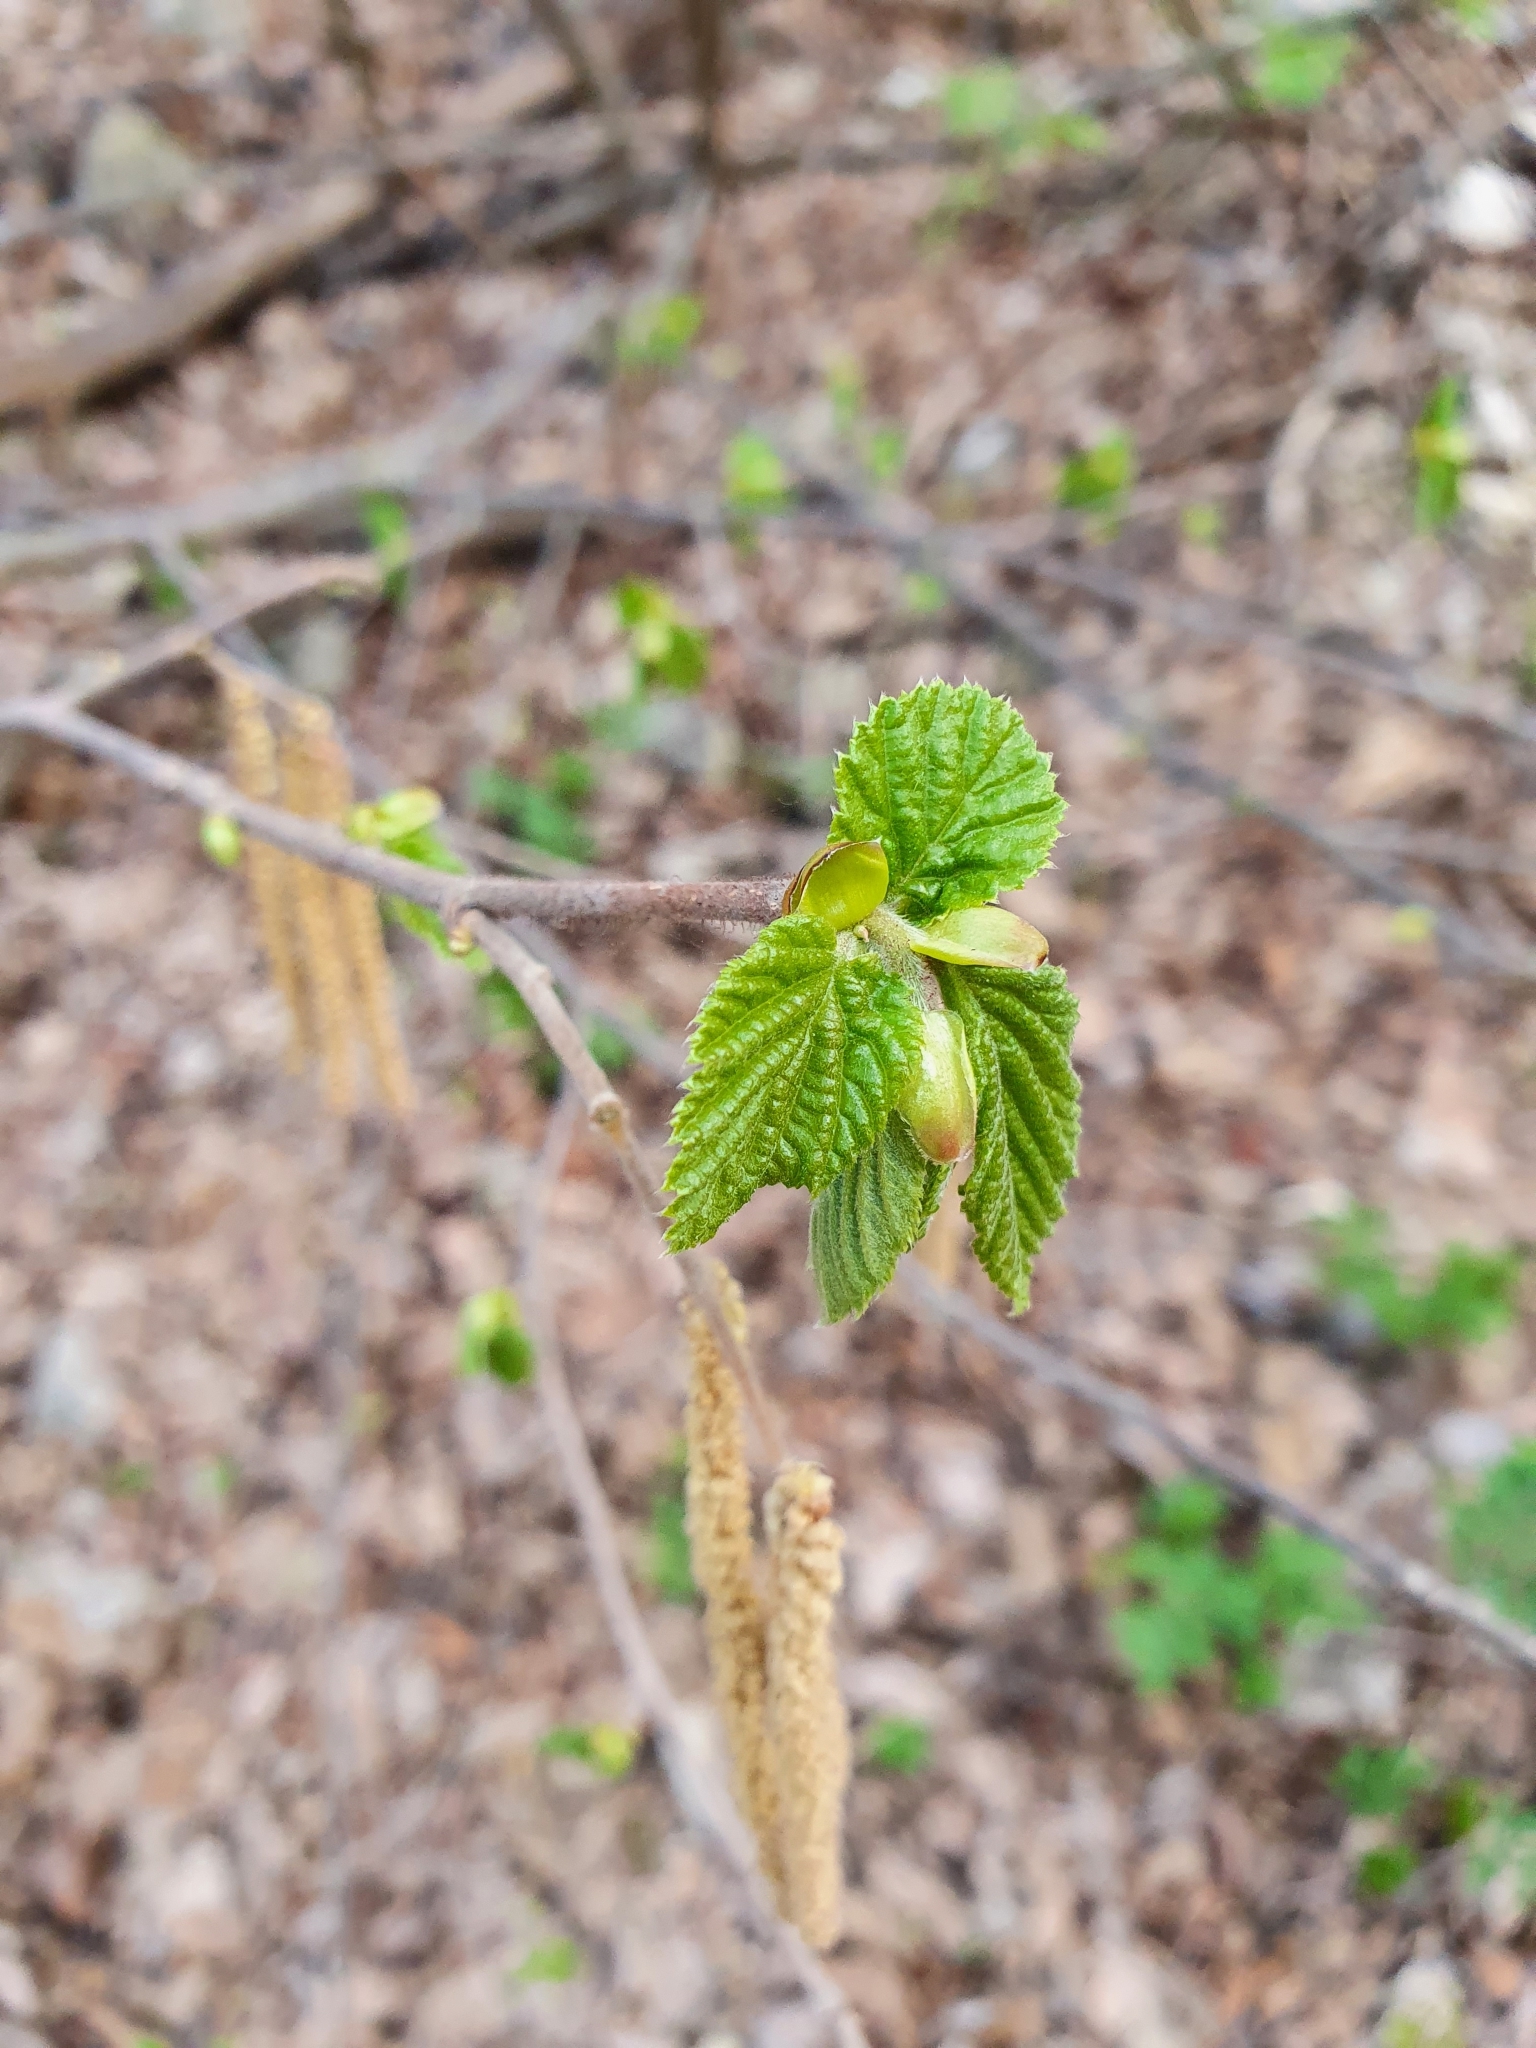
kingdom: Plantae
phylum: Tracheophyta
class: Magnoliopsida
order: Fagales
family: Betulaceae
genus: Corylus
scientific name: Corylus avellana
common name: European hazel
